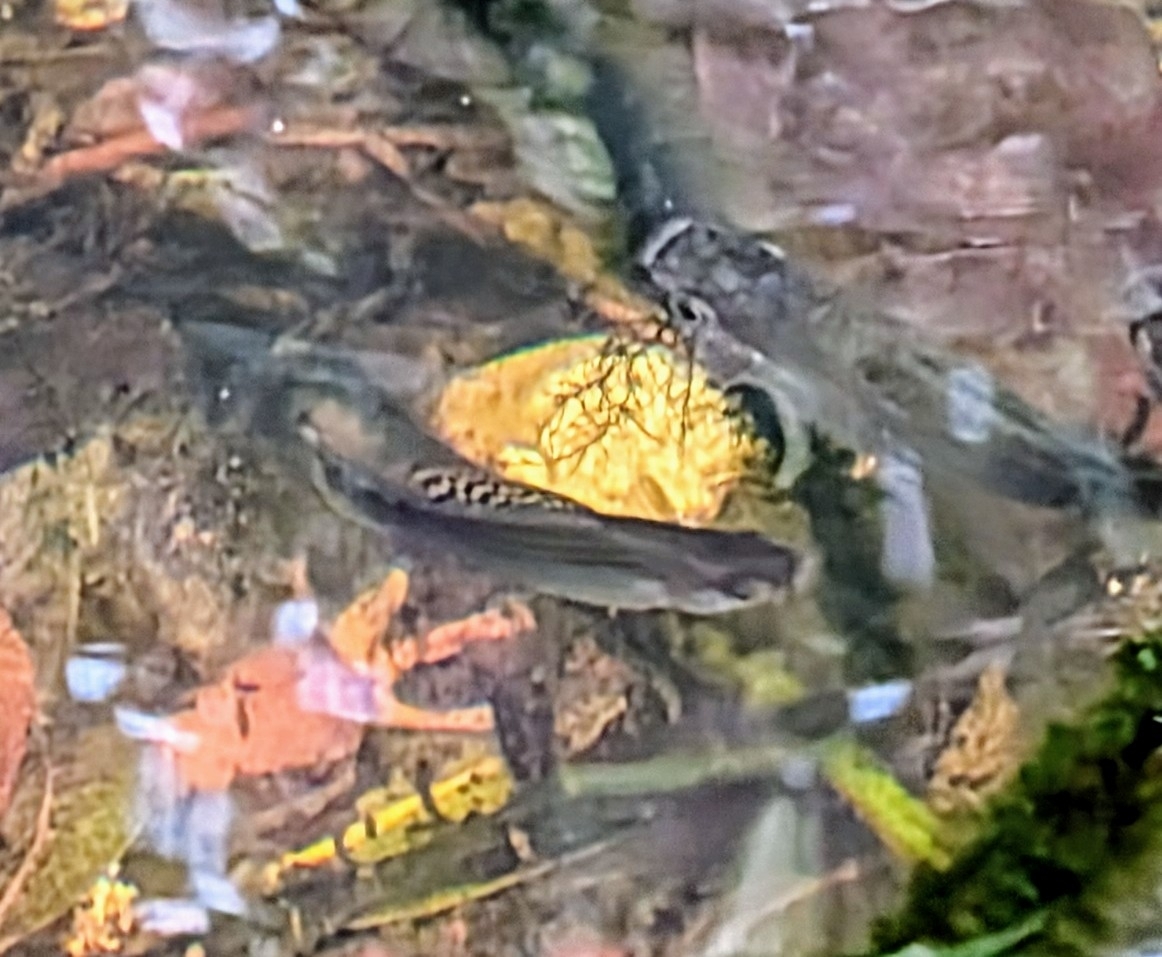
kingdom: Animalia
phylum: Chordata
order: Cyprinodontiformes
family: Poeciliidae
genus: Poecilia
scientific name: Poecilia latipinna
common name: Sailfin molly
